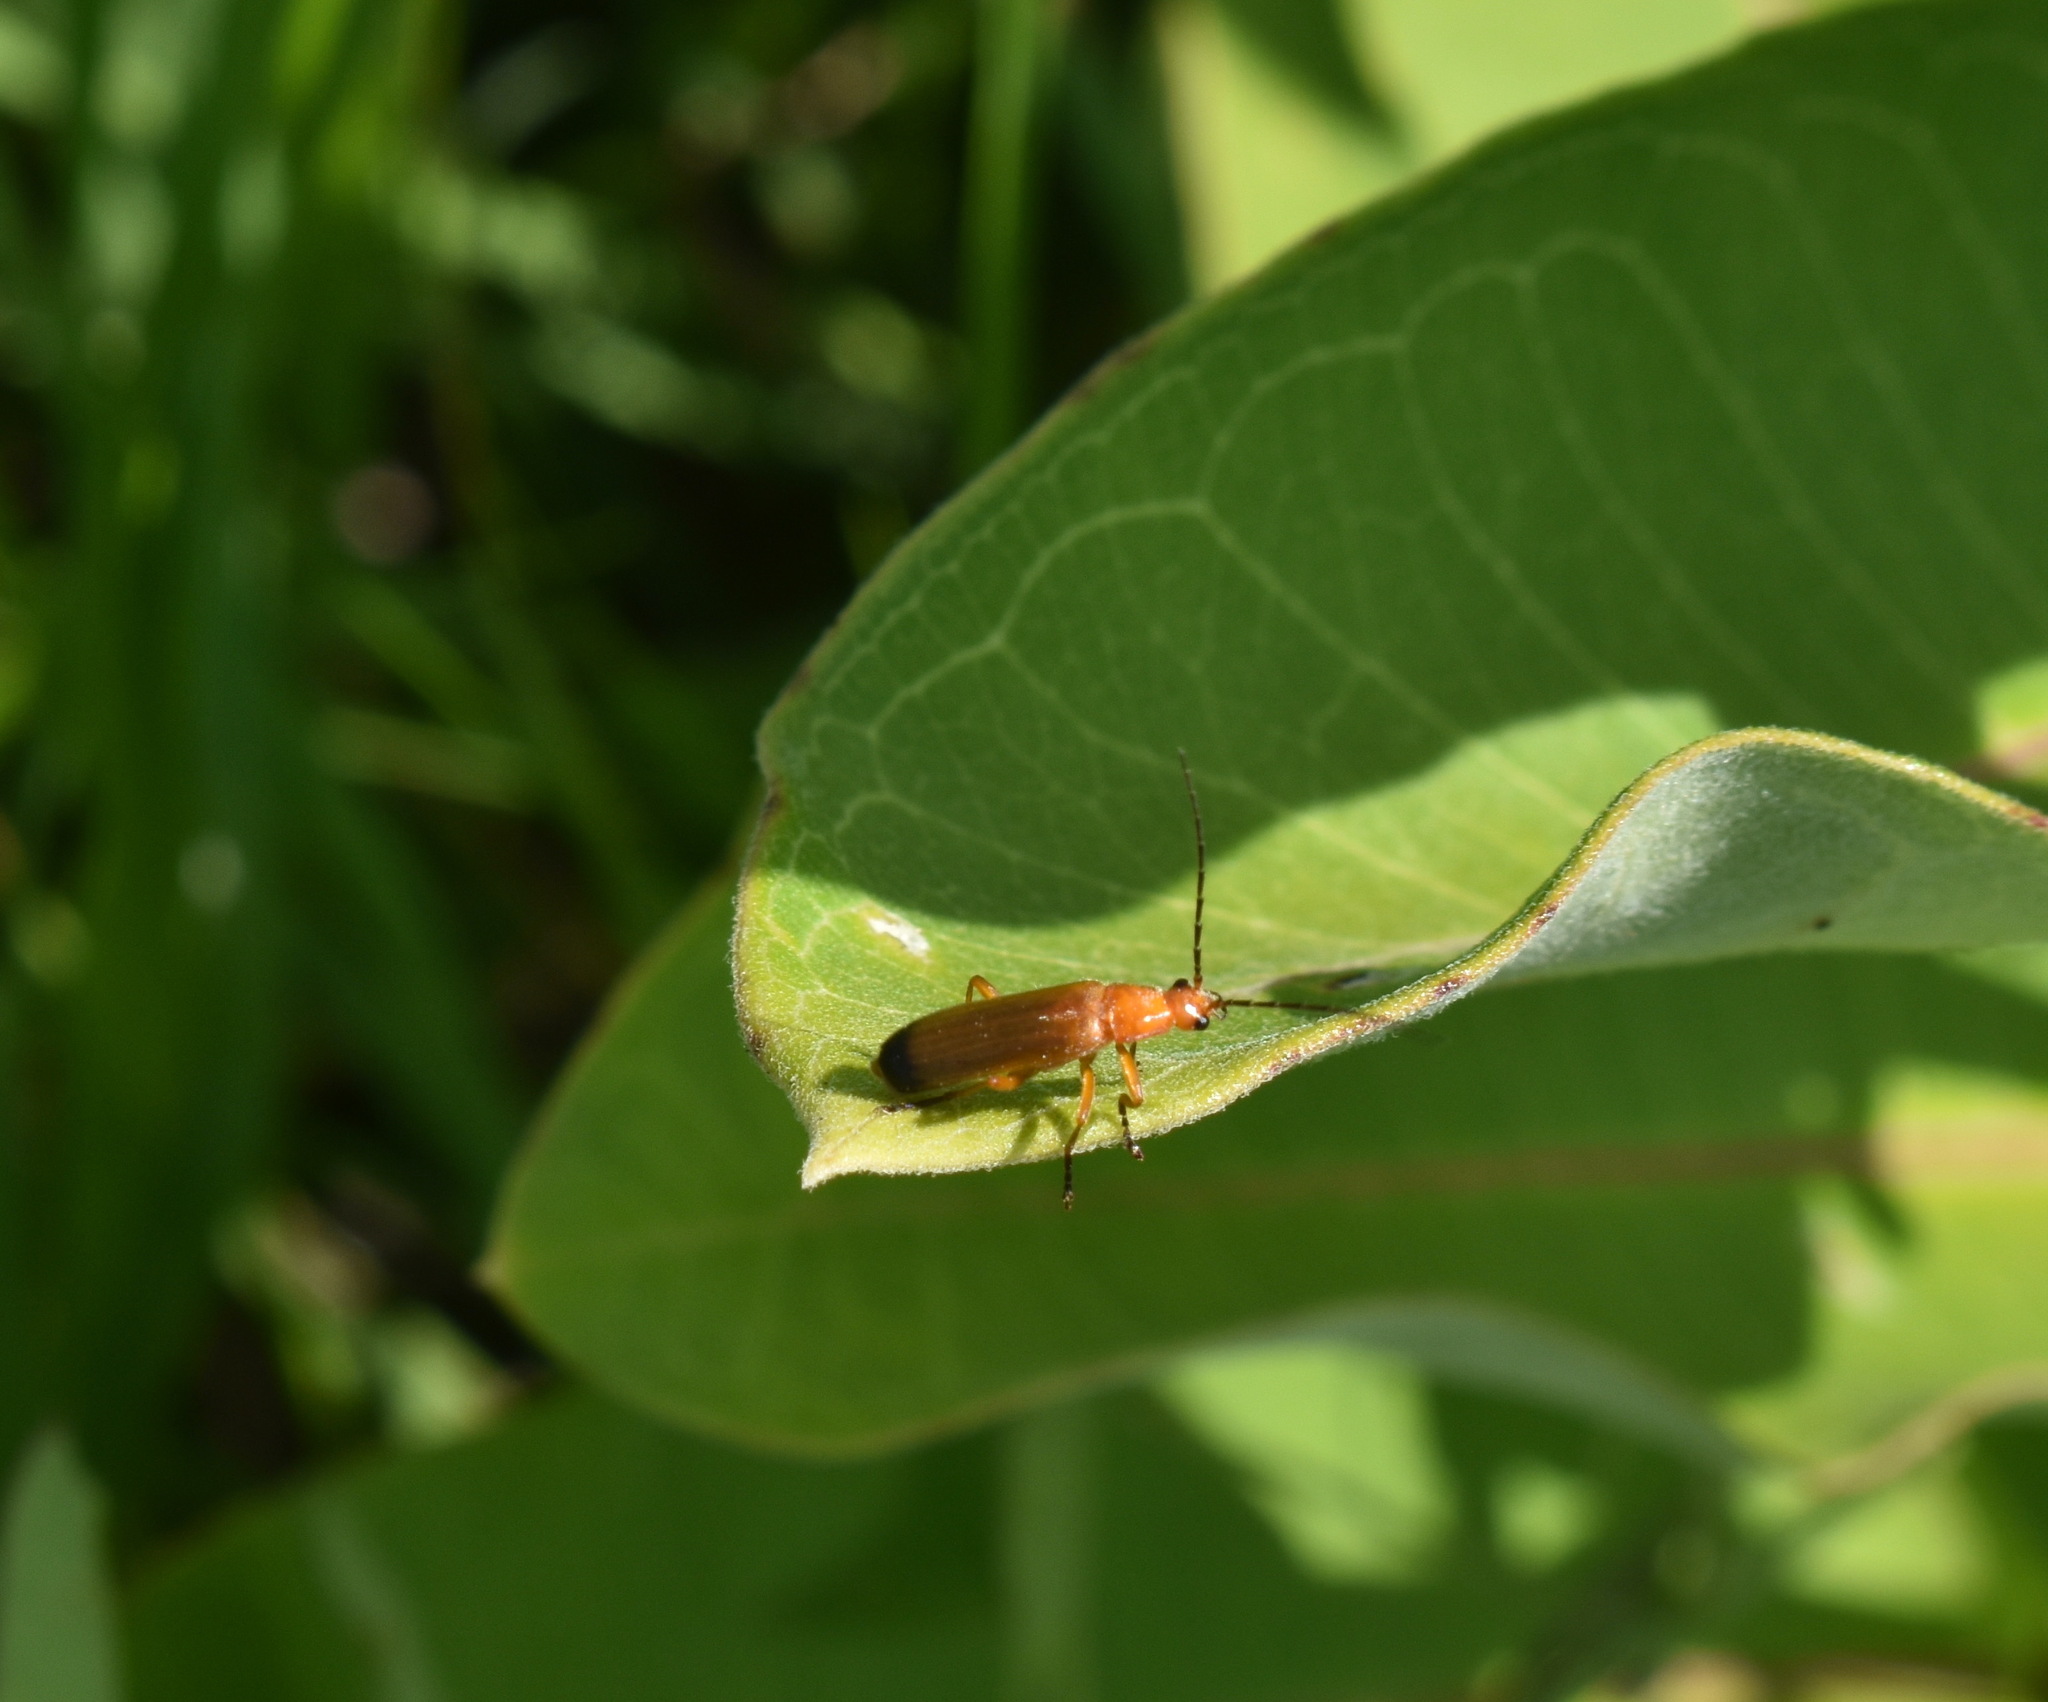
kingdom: Animalia
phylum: Arthropoda
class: Insecta
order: Coleoptera
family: Cantharidae
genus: Rhagonycha
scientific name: Rhagonycha fulva
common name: Common red soldier beetle
